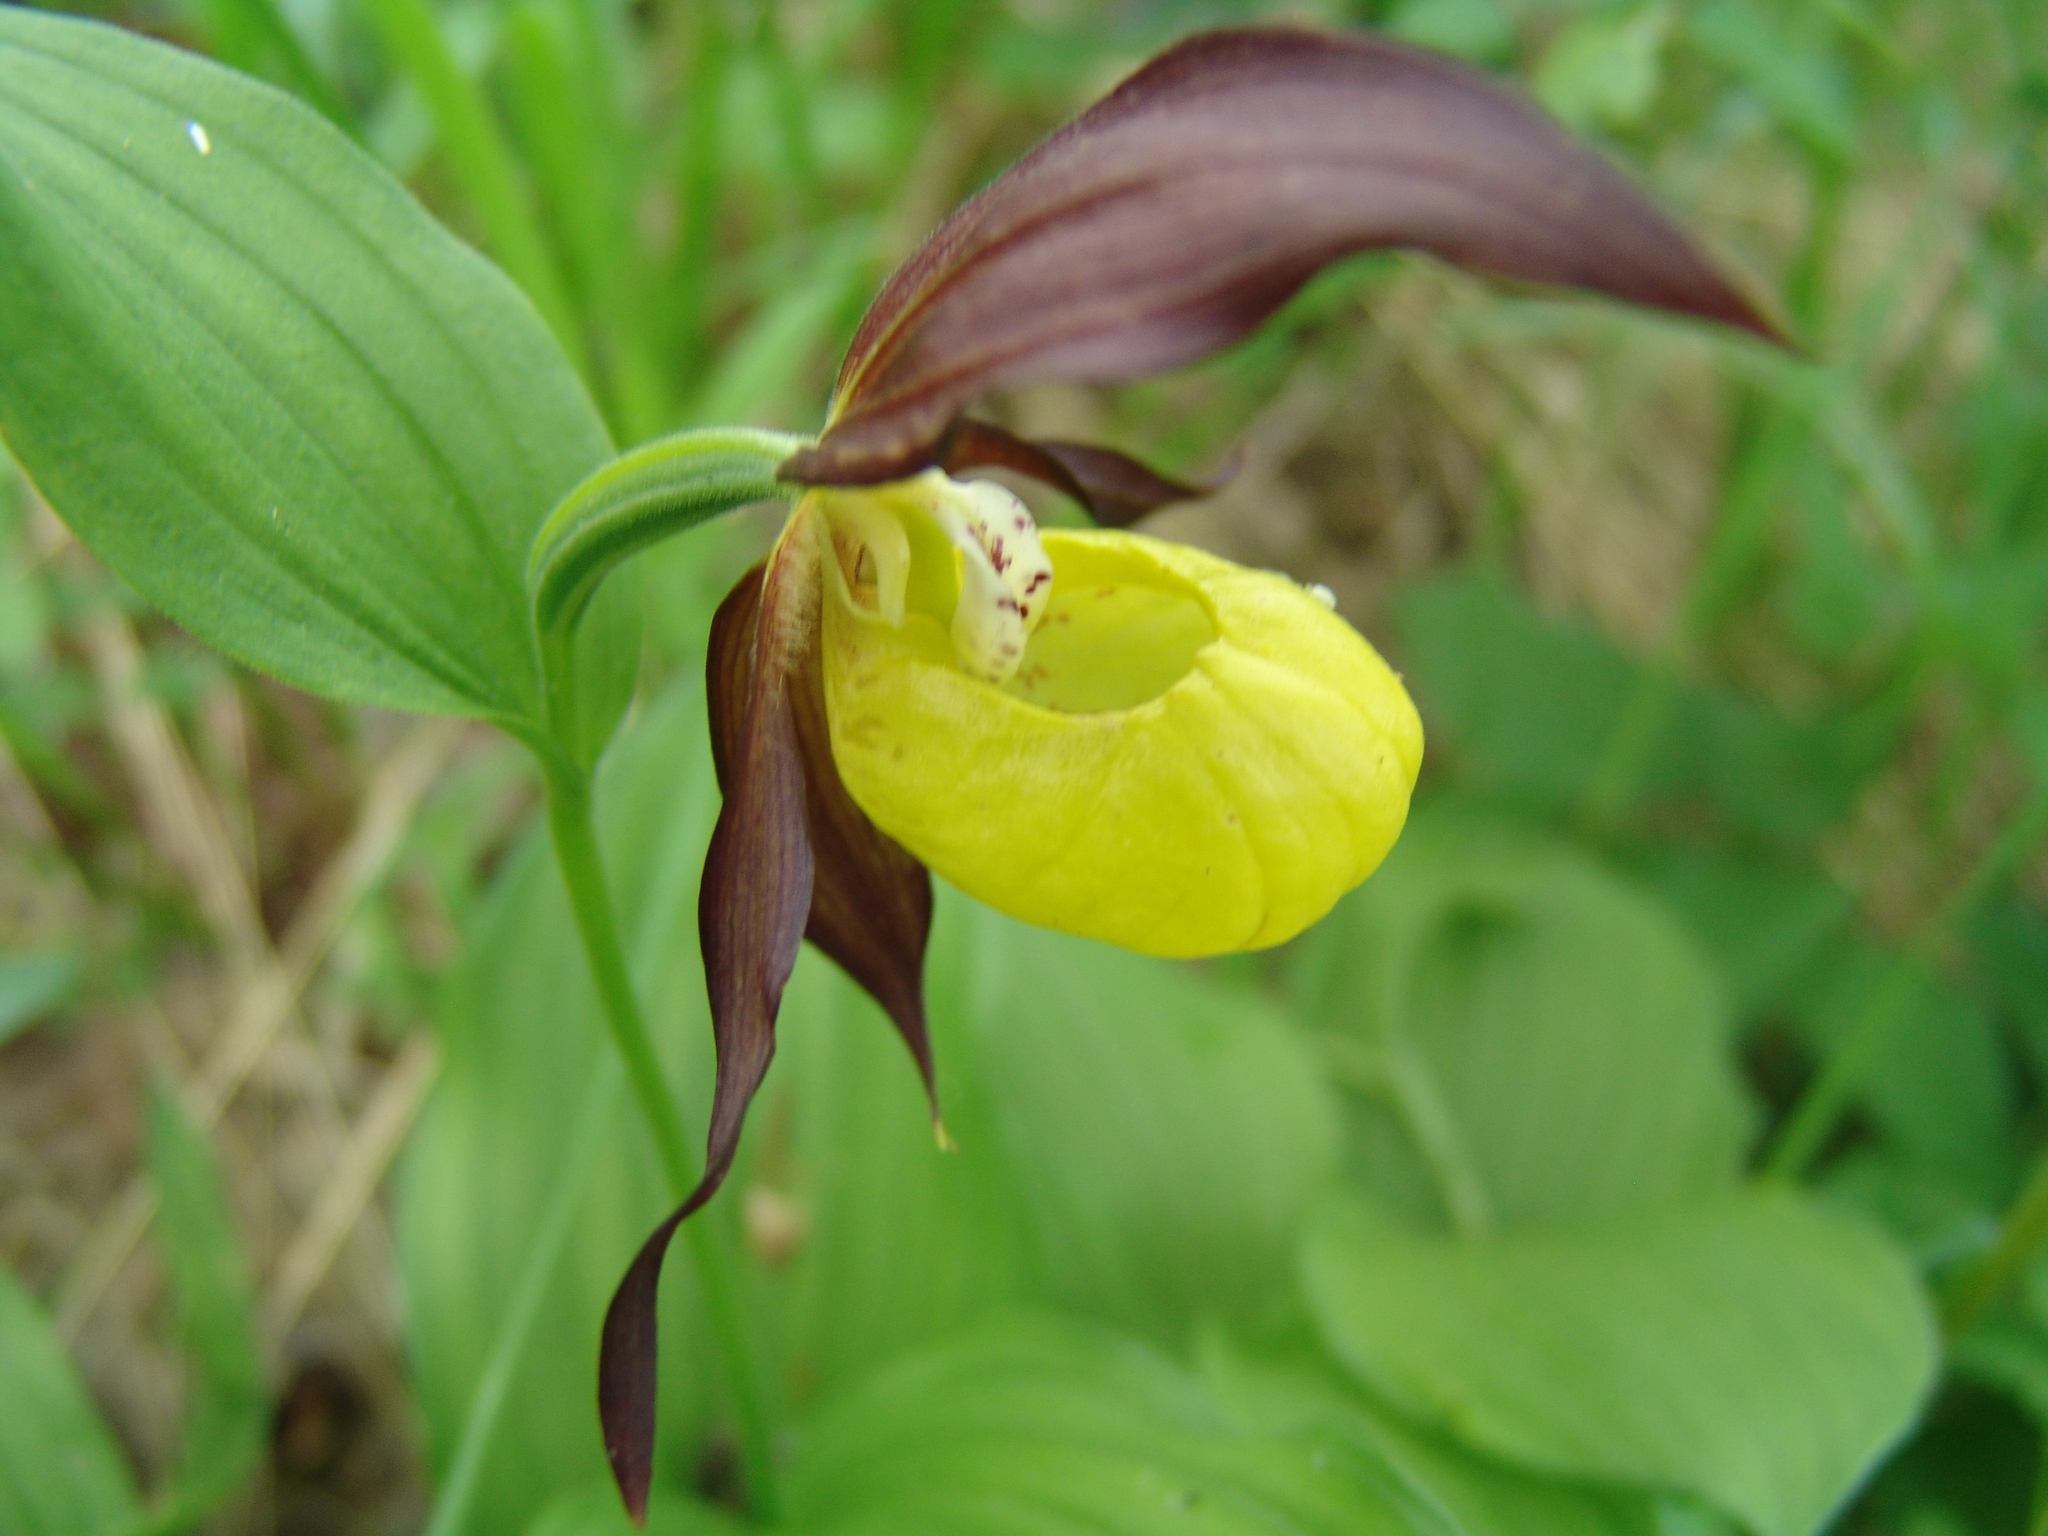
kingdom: Plantae
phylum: Tracheophyta
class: Liliopsida
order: Asparagales
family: Orchidaceae
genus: Cypripedium
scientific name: Cypripedium calceolus
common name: Lady's-slipper
